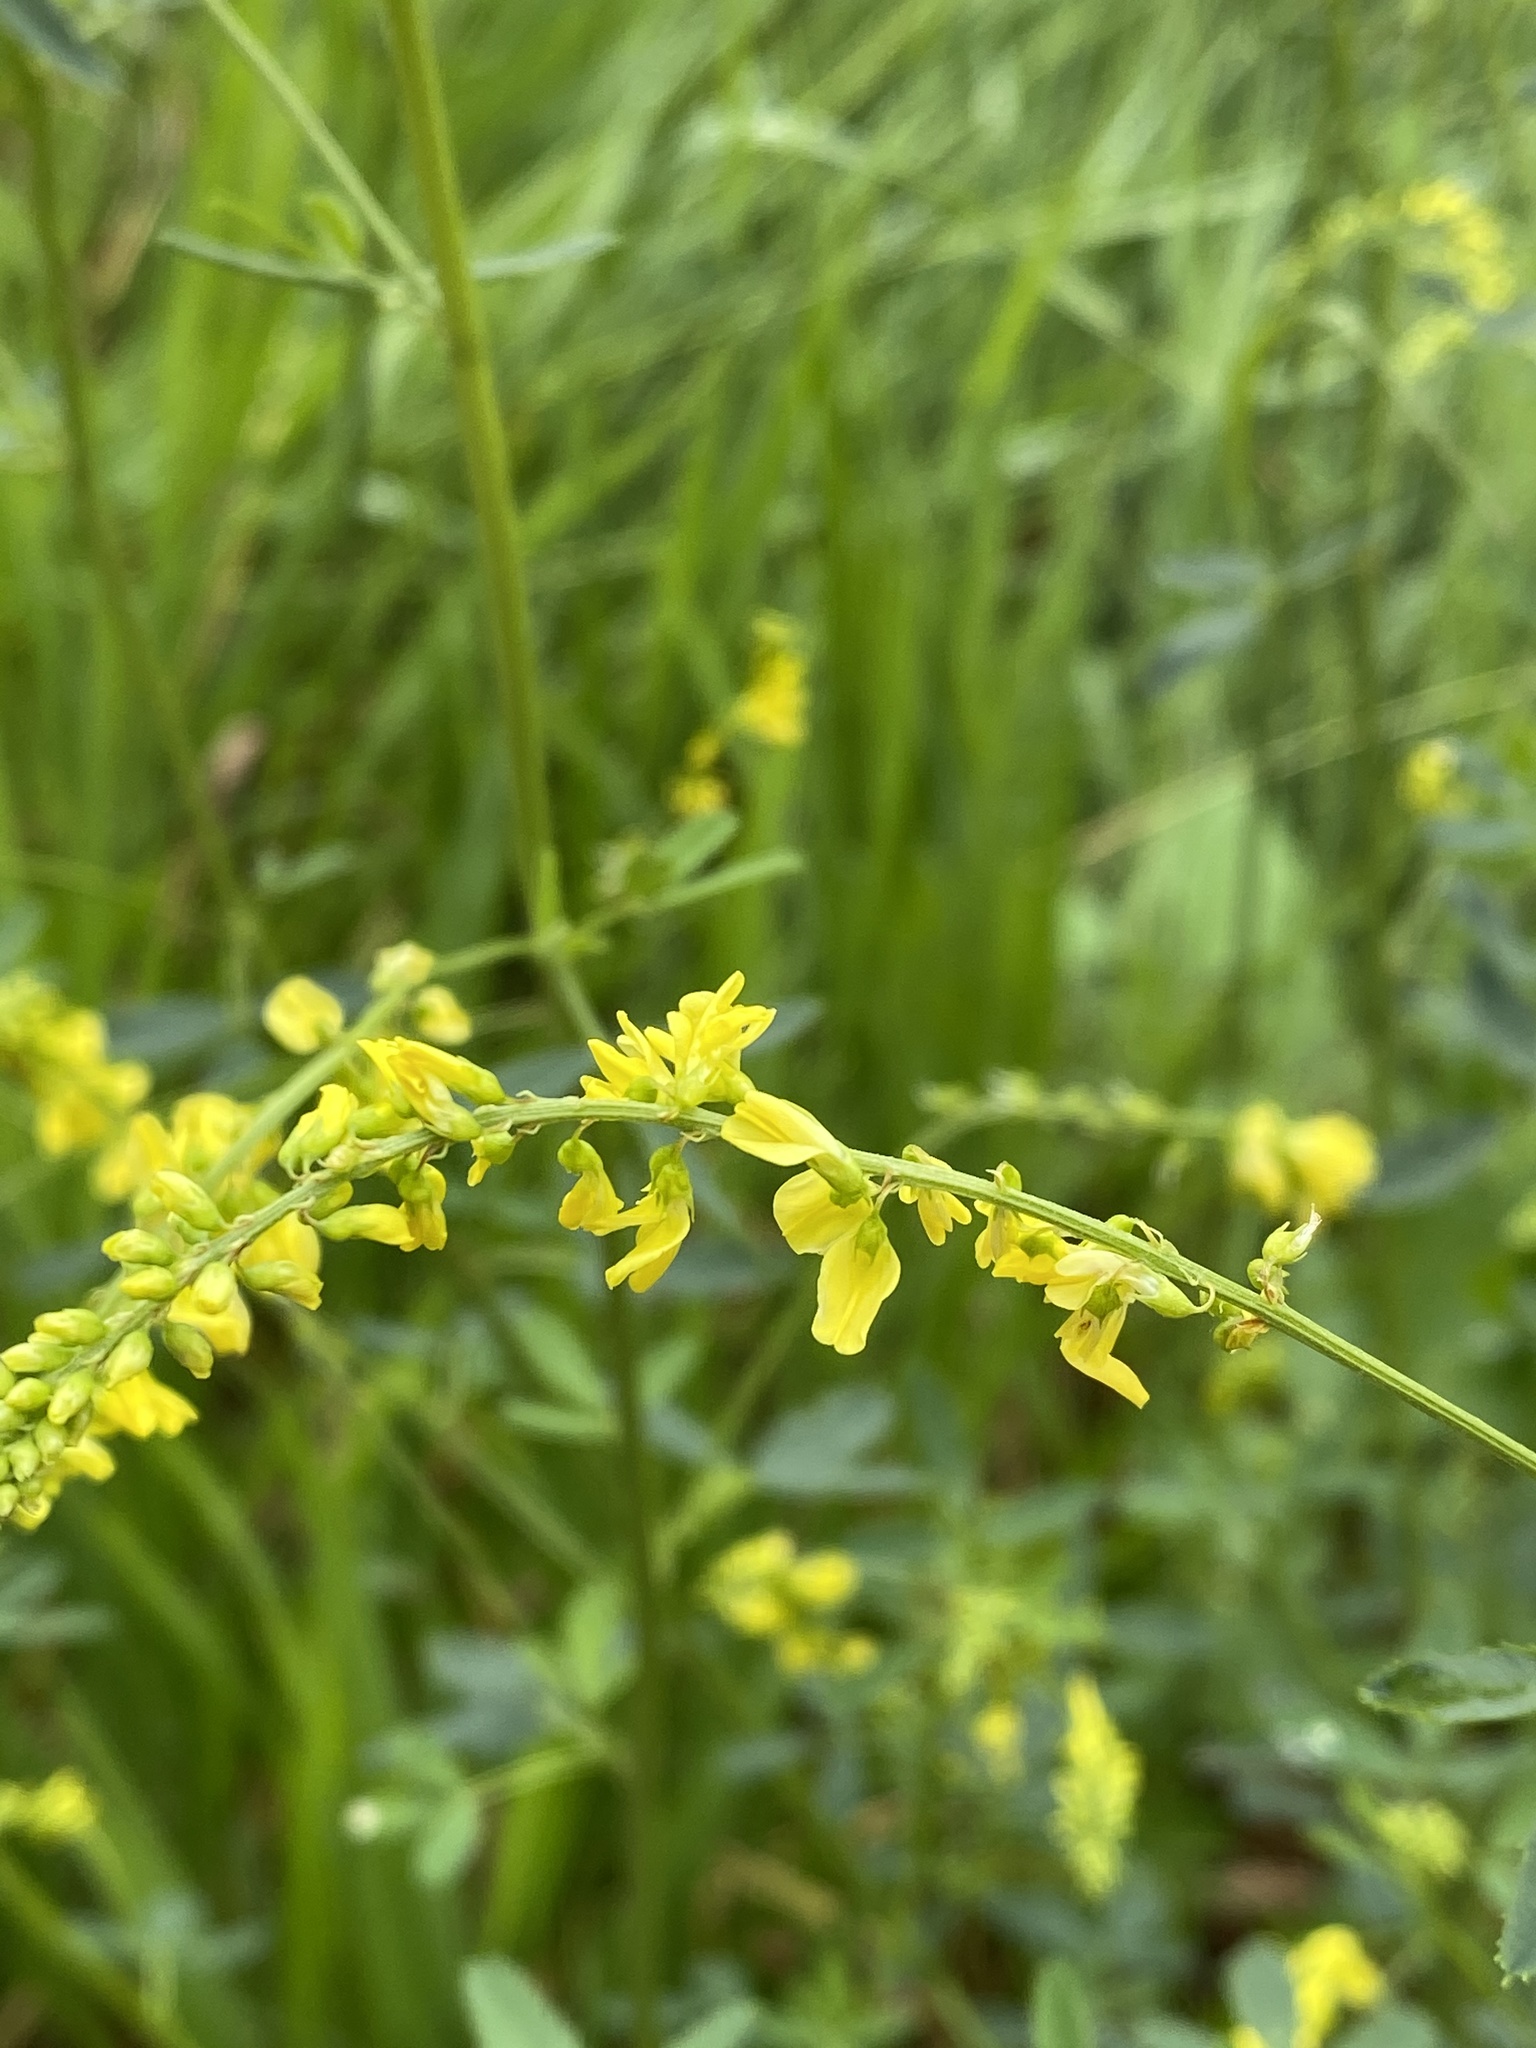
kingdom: Plantae
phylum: Tracheophyta
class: Magnoliopsida
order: Fabales
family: Fabaceae
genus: Melilotus
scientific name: Melilotus officinalis
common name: Sweetclover
